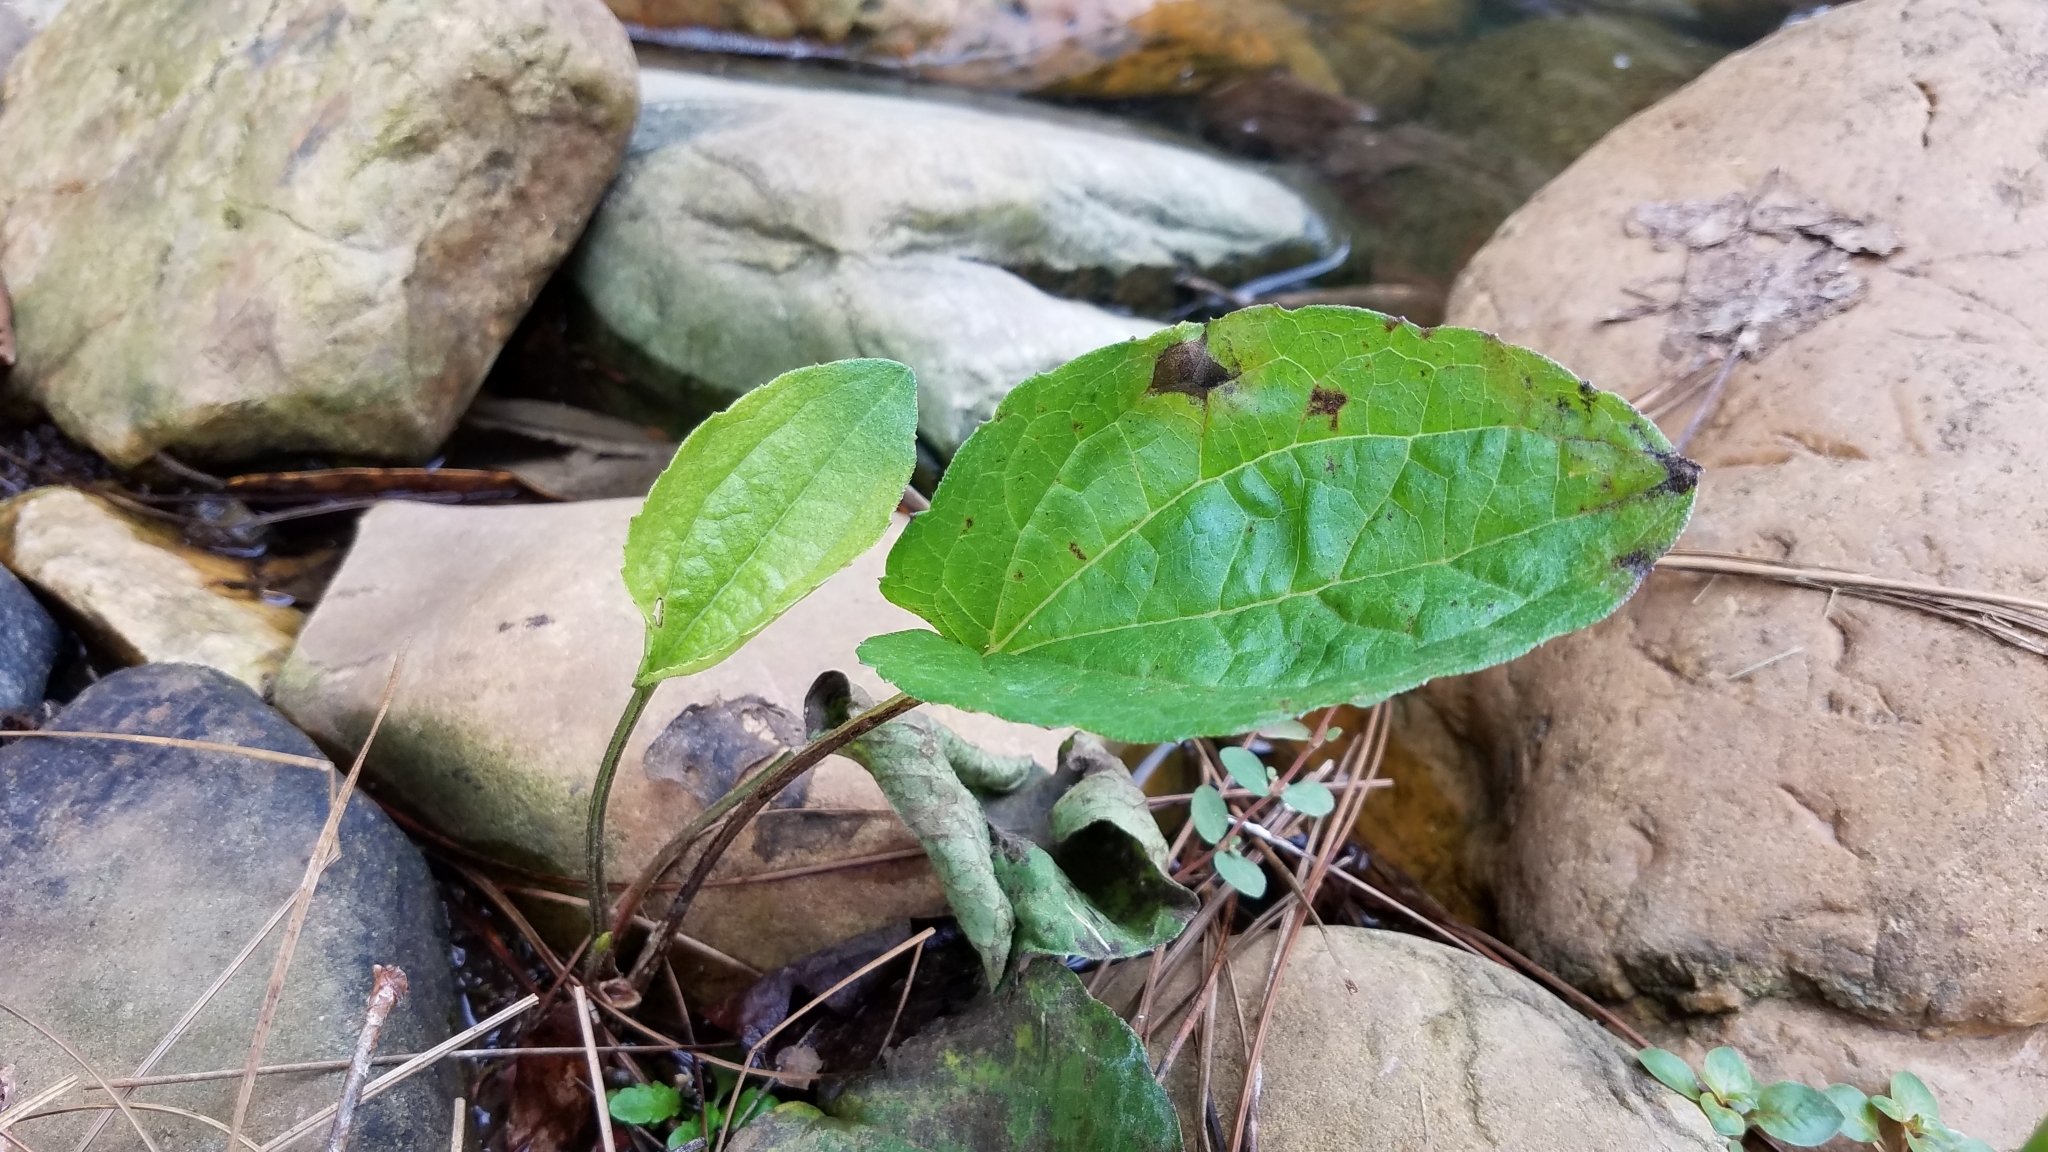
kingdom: Plantae
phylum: Tracheophyta
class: Magnoliopsida
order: Lamiales
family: Plantaginaceae
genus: Plantago
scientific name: Plantago major
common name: Common plantain
